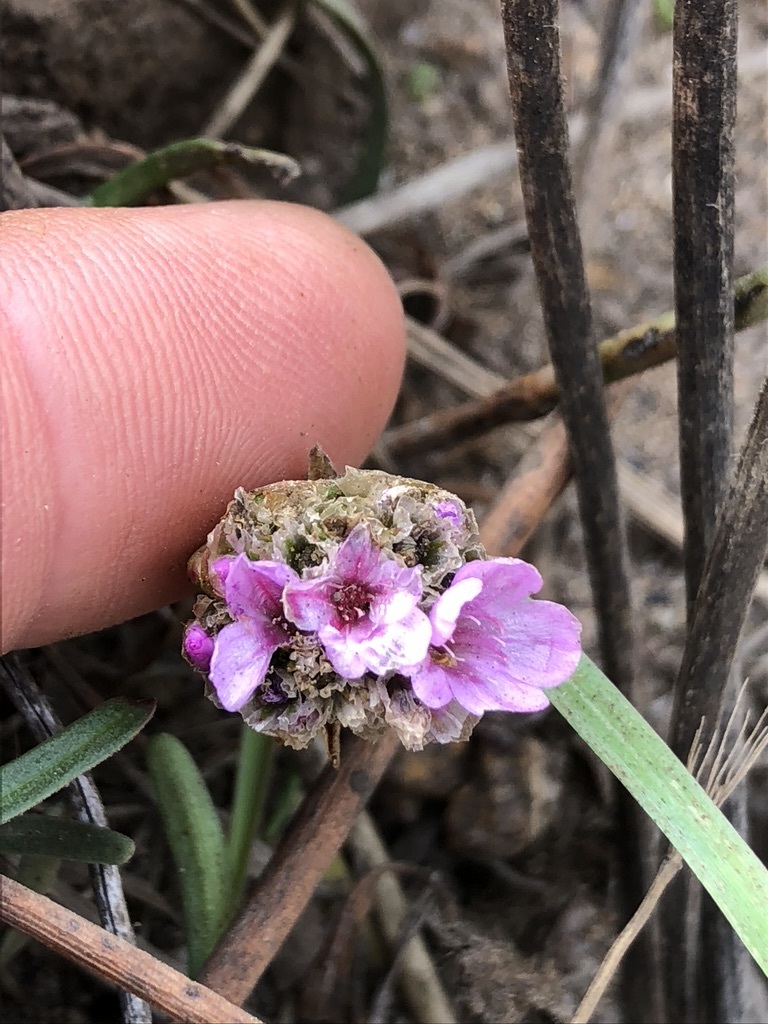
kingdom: Plantae
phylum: Tracheophyta
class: Magnoliopsida
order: Caryophyllales
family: Plumbaginaceae
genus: Armeria
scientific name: Armeria maritima
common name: Thrift
